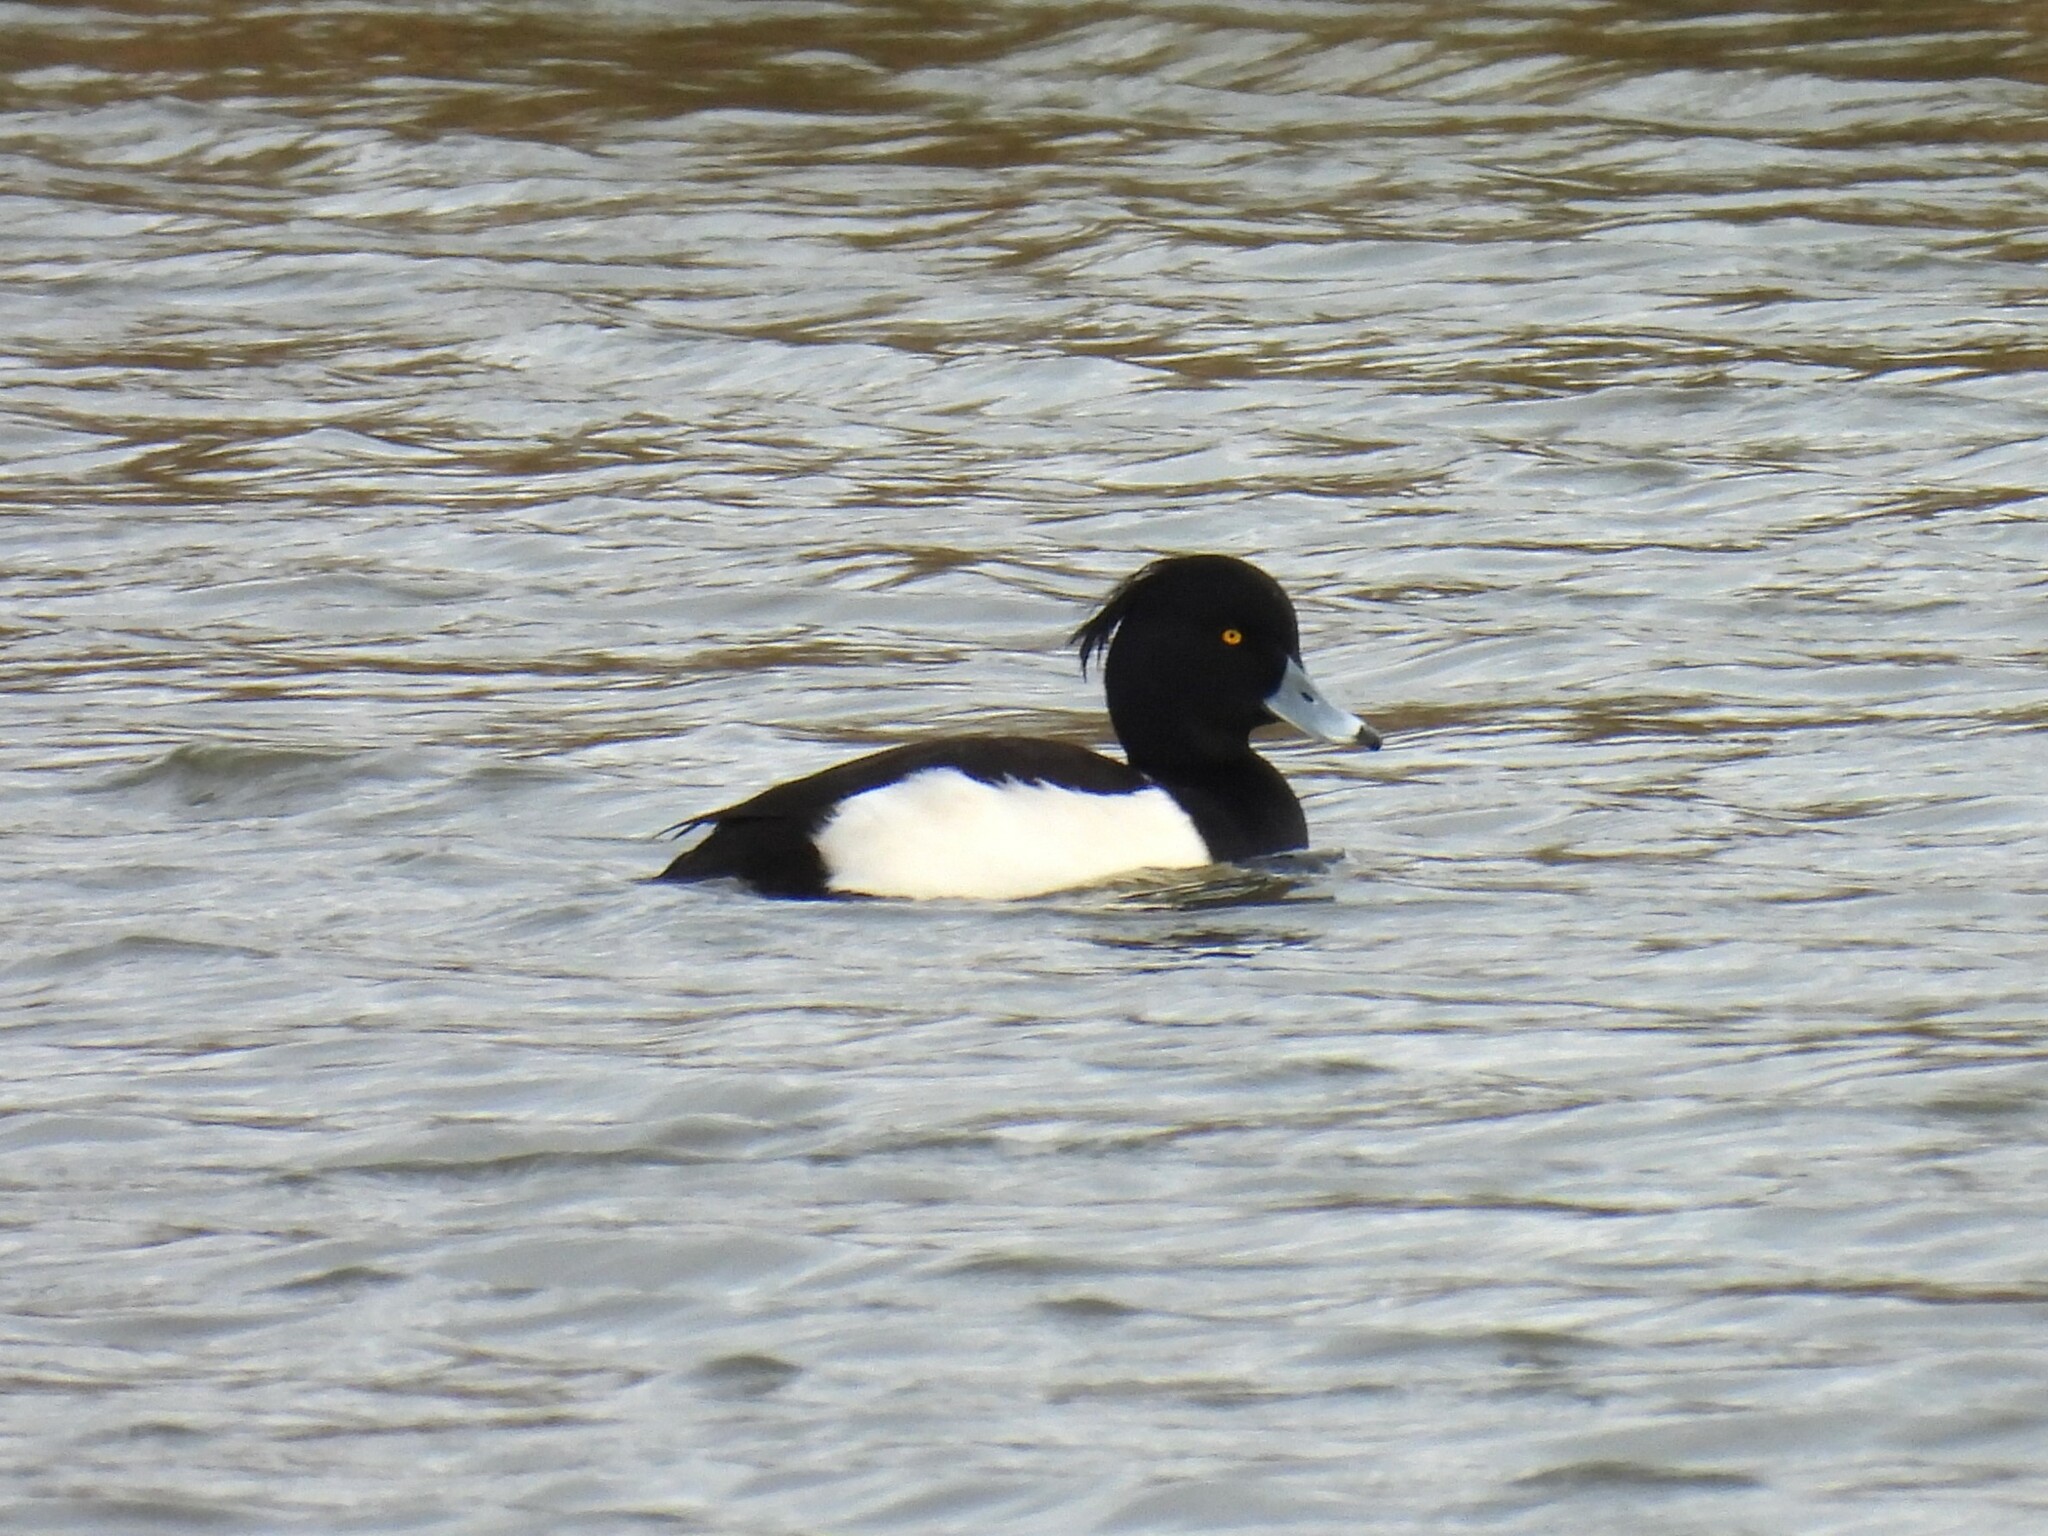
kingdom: Animalia
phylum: Chordata
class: Aves
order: Anseriformes
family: Anatidae
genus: Aythya
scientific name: Aythya fuligula
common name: Tufted duck
